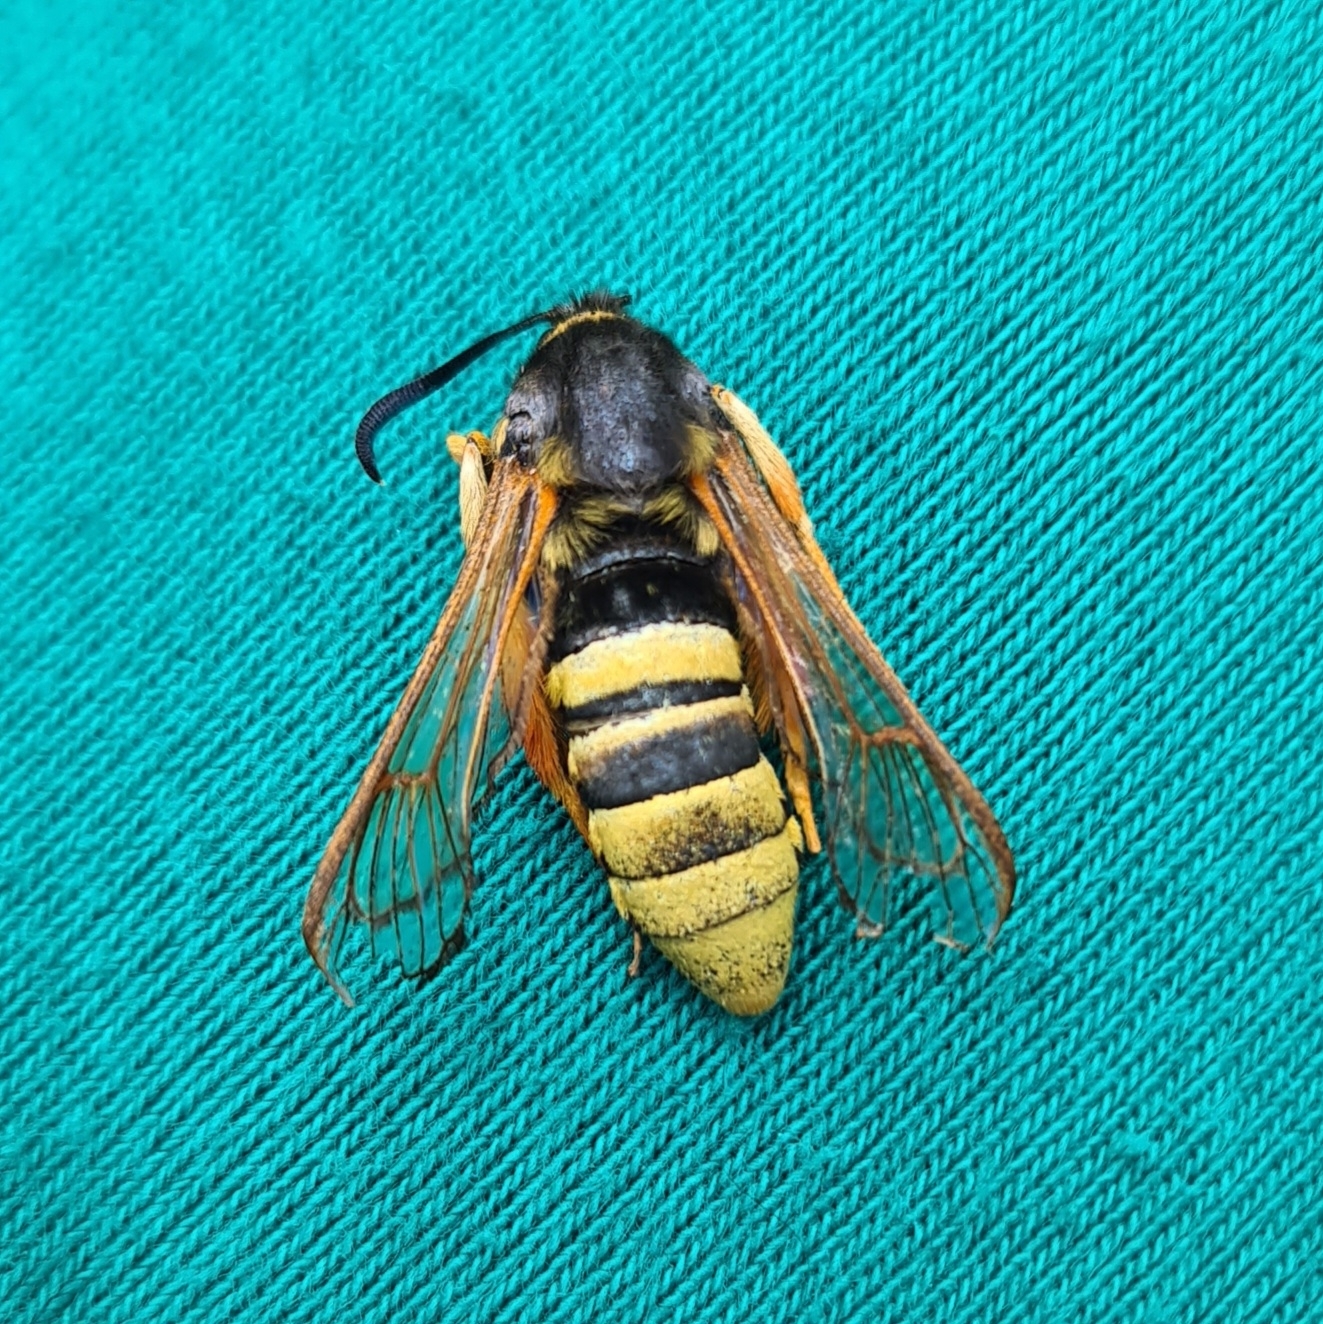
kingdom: Animalia
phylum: Arthropoda
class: Insecta
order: Lepidoptera
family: Sesiidae
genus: Sesia
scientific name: Sesia bembeciformis
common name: Lunar hornet moth
